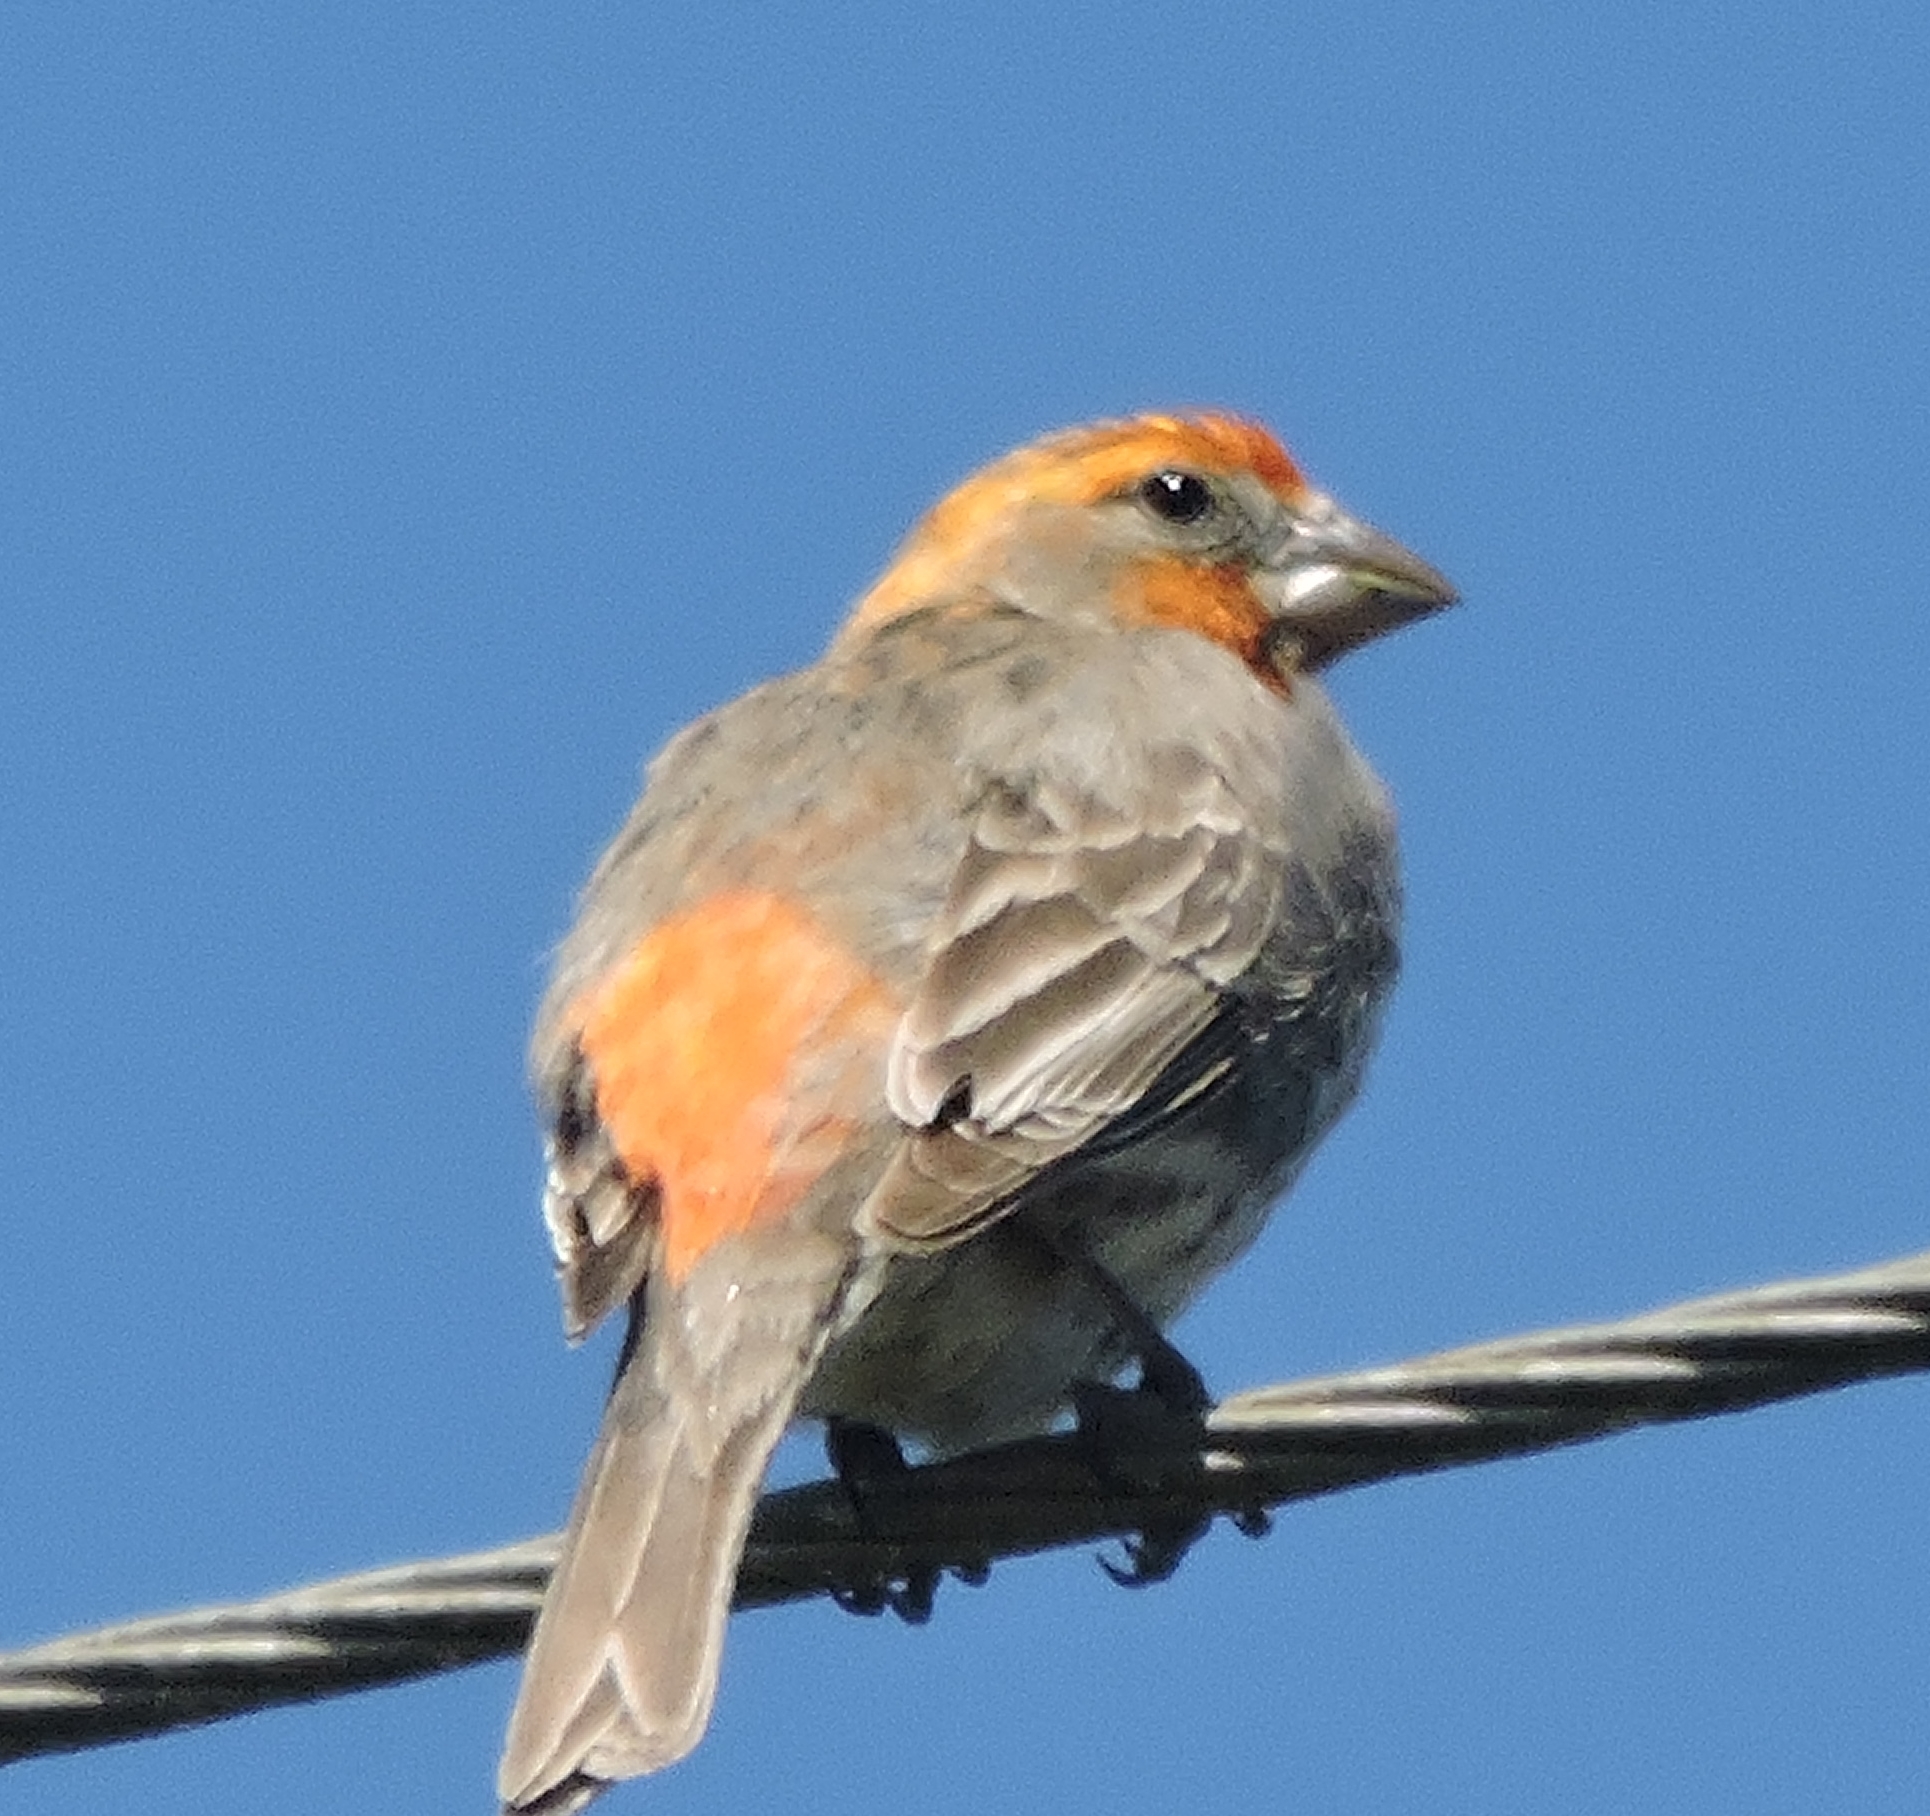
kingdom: Animalia
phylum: Chordata
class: Aves
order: Passeriformes
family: Fringillidae
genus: Haemorhous
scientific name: Haemorhous mexicanus
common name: House finch
